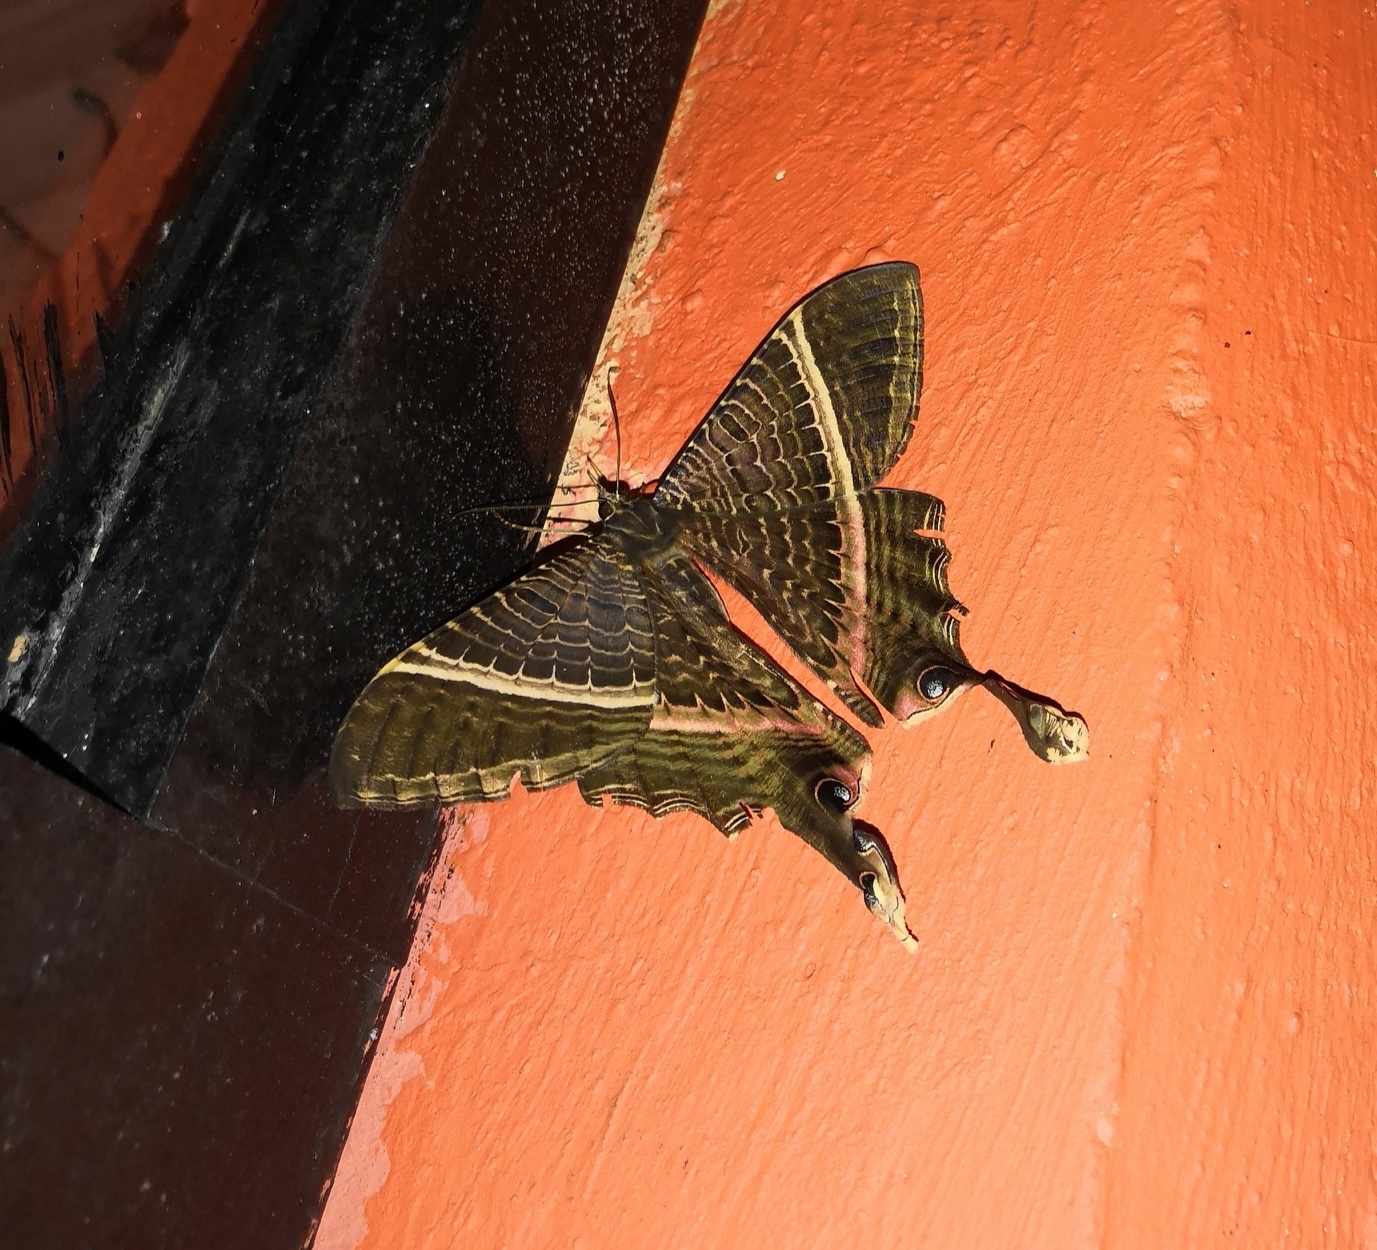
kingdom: Animalia
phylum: Arthropoda
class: Insecta
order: Lepidoptera
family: Sematuridae
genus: Nothus
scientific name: Nothus empedocles
